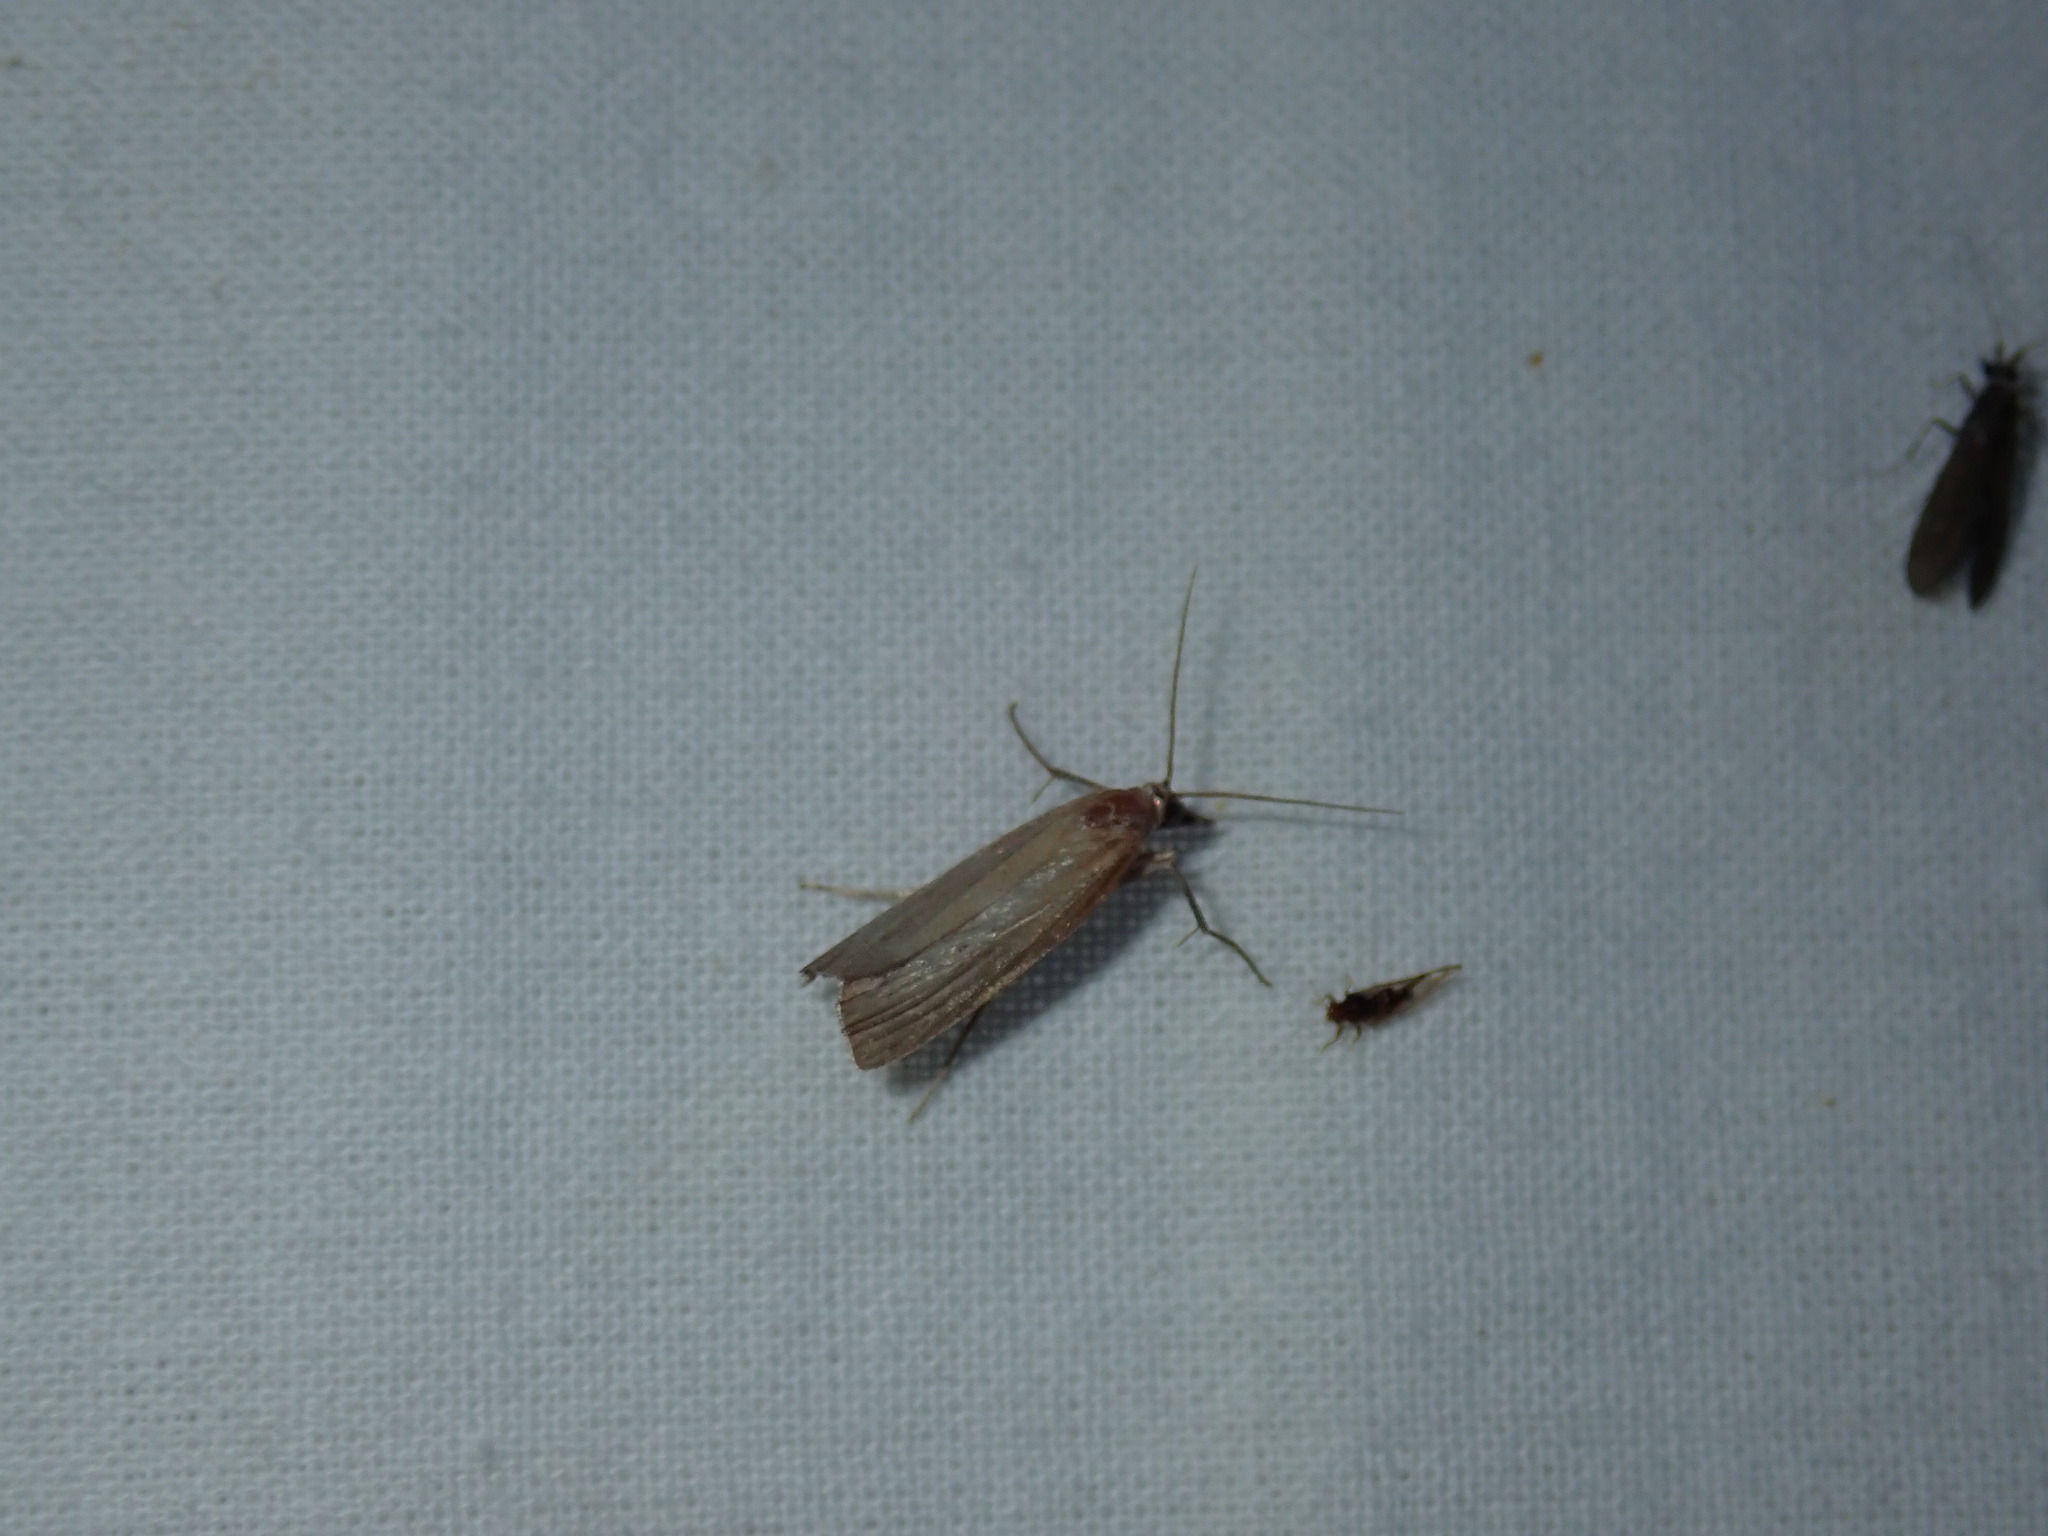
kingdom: Animalia
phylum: Arthropoda
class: Insecta
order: Lepidoptera
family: Erebidae
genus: Crambidia
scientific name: Crambidia pallida
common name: Pale lichen moth
